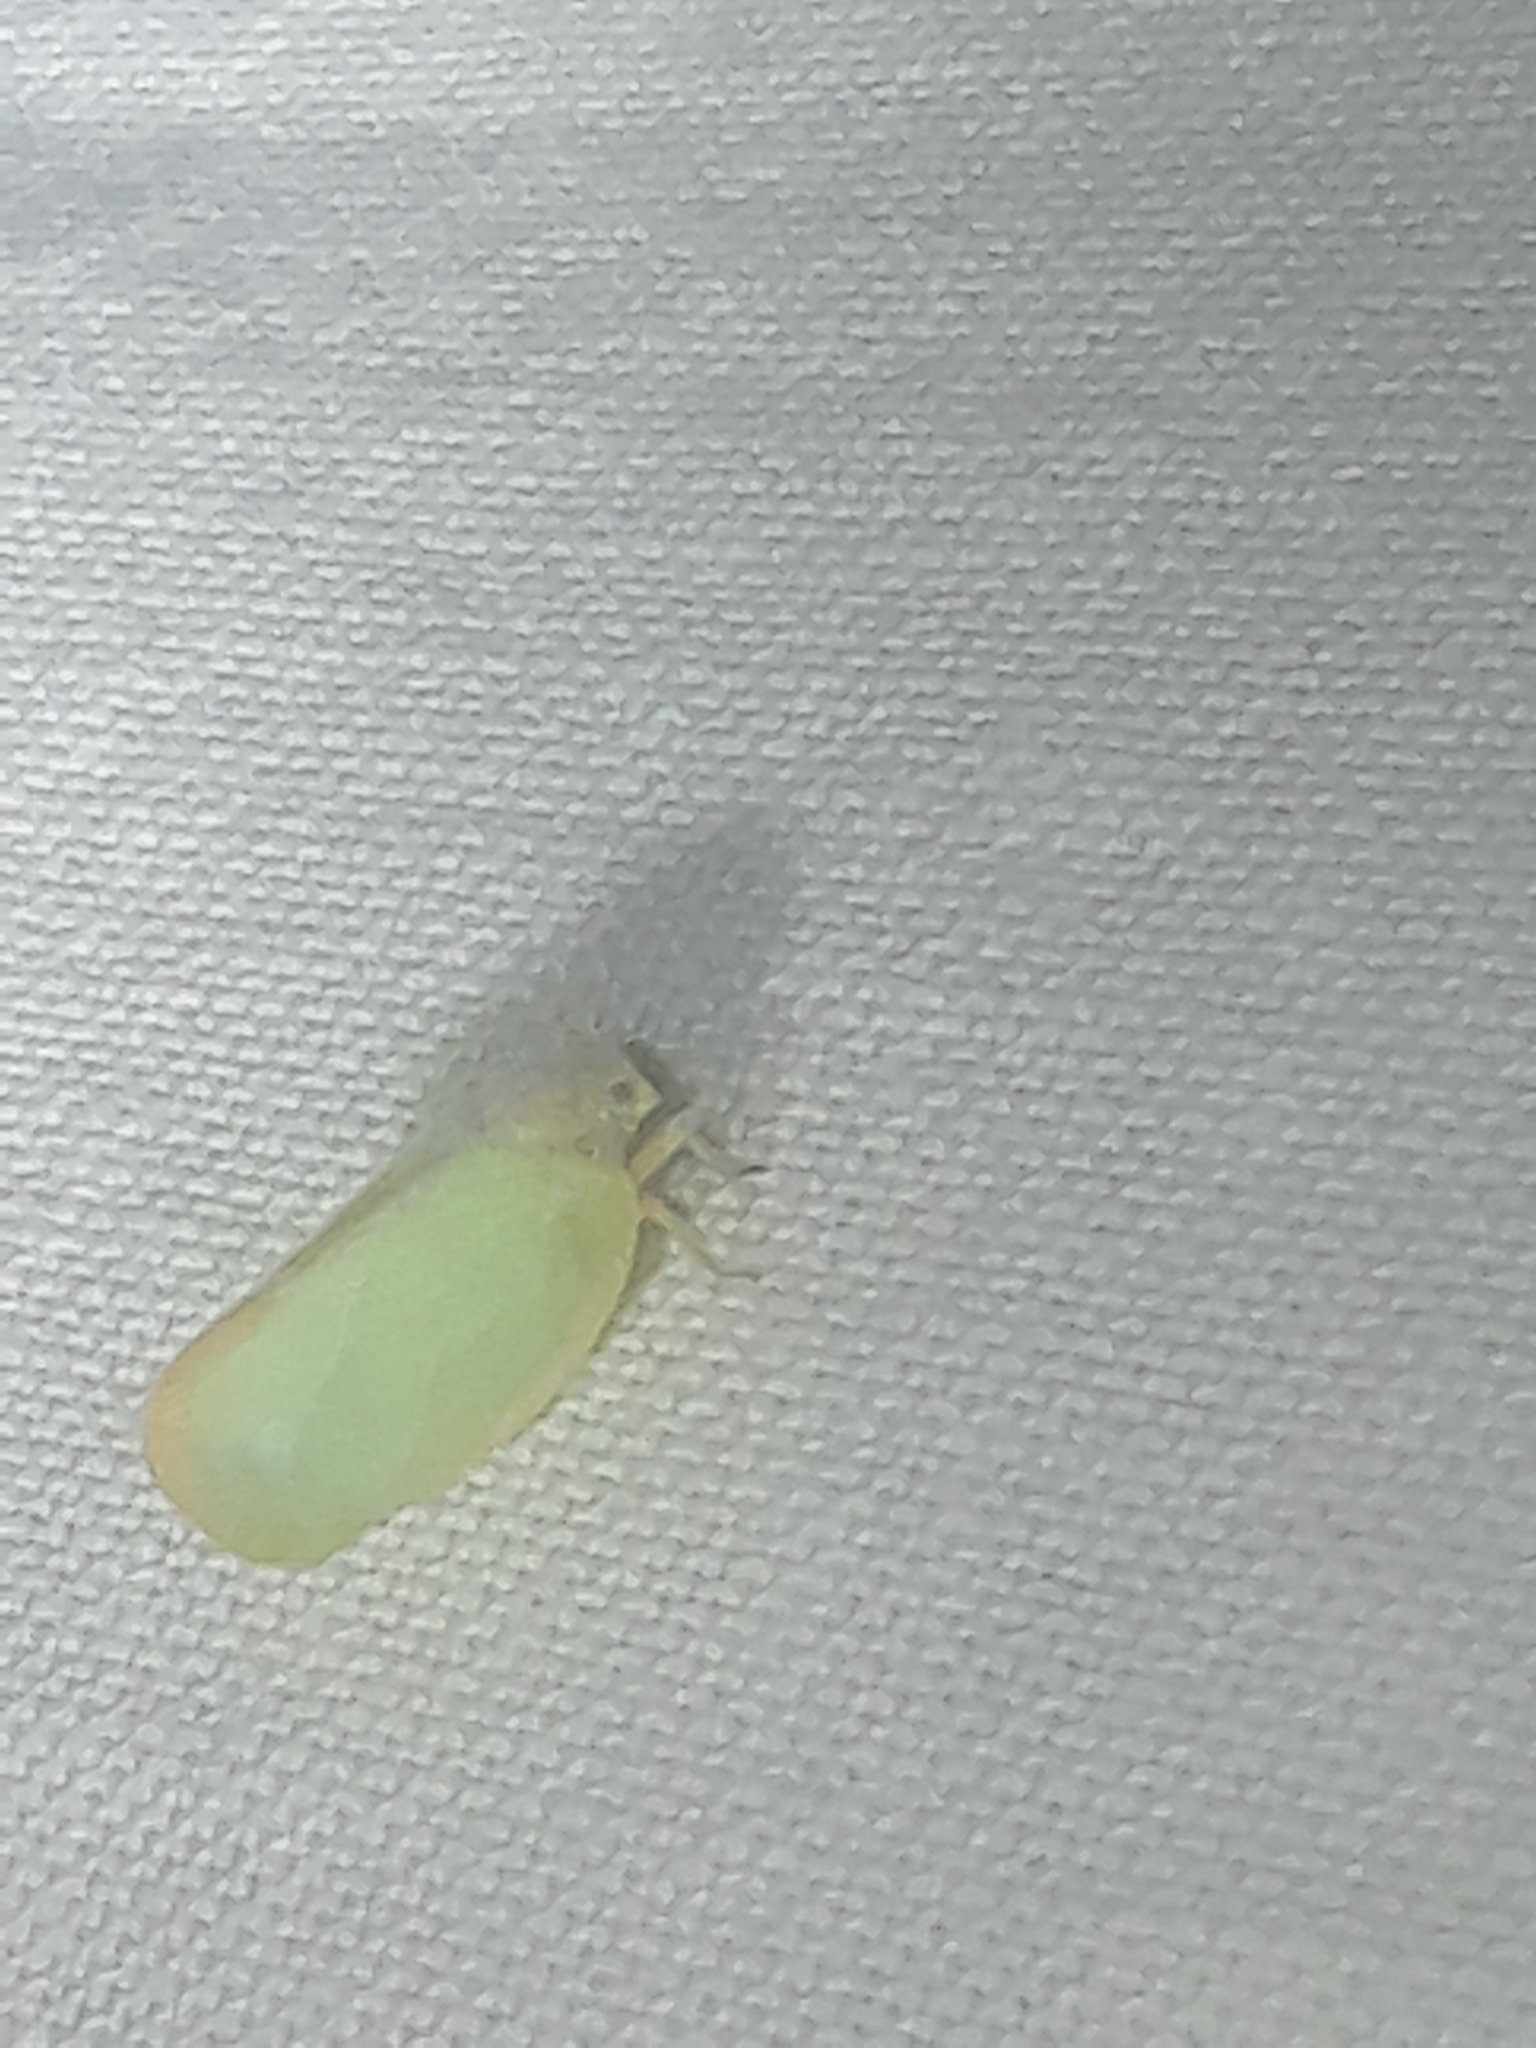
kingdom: Animalia
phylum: Arthropoda
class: Insecta
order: Hemiptera
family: Flatidae
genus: Ormenoides
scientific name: Ormenoides venusta
